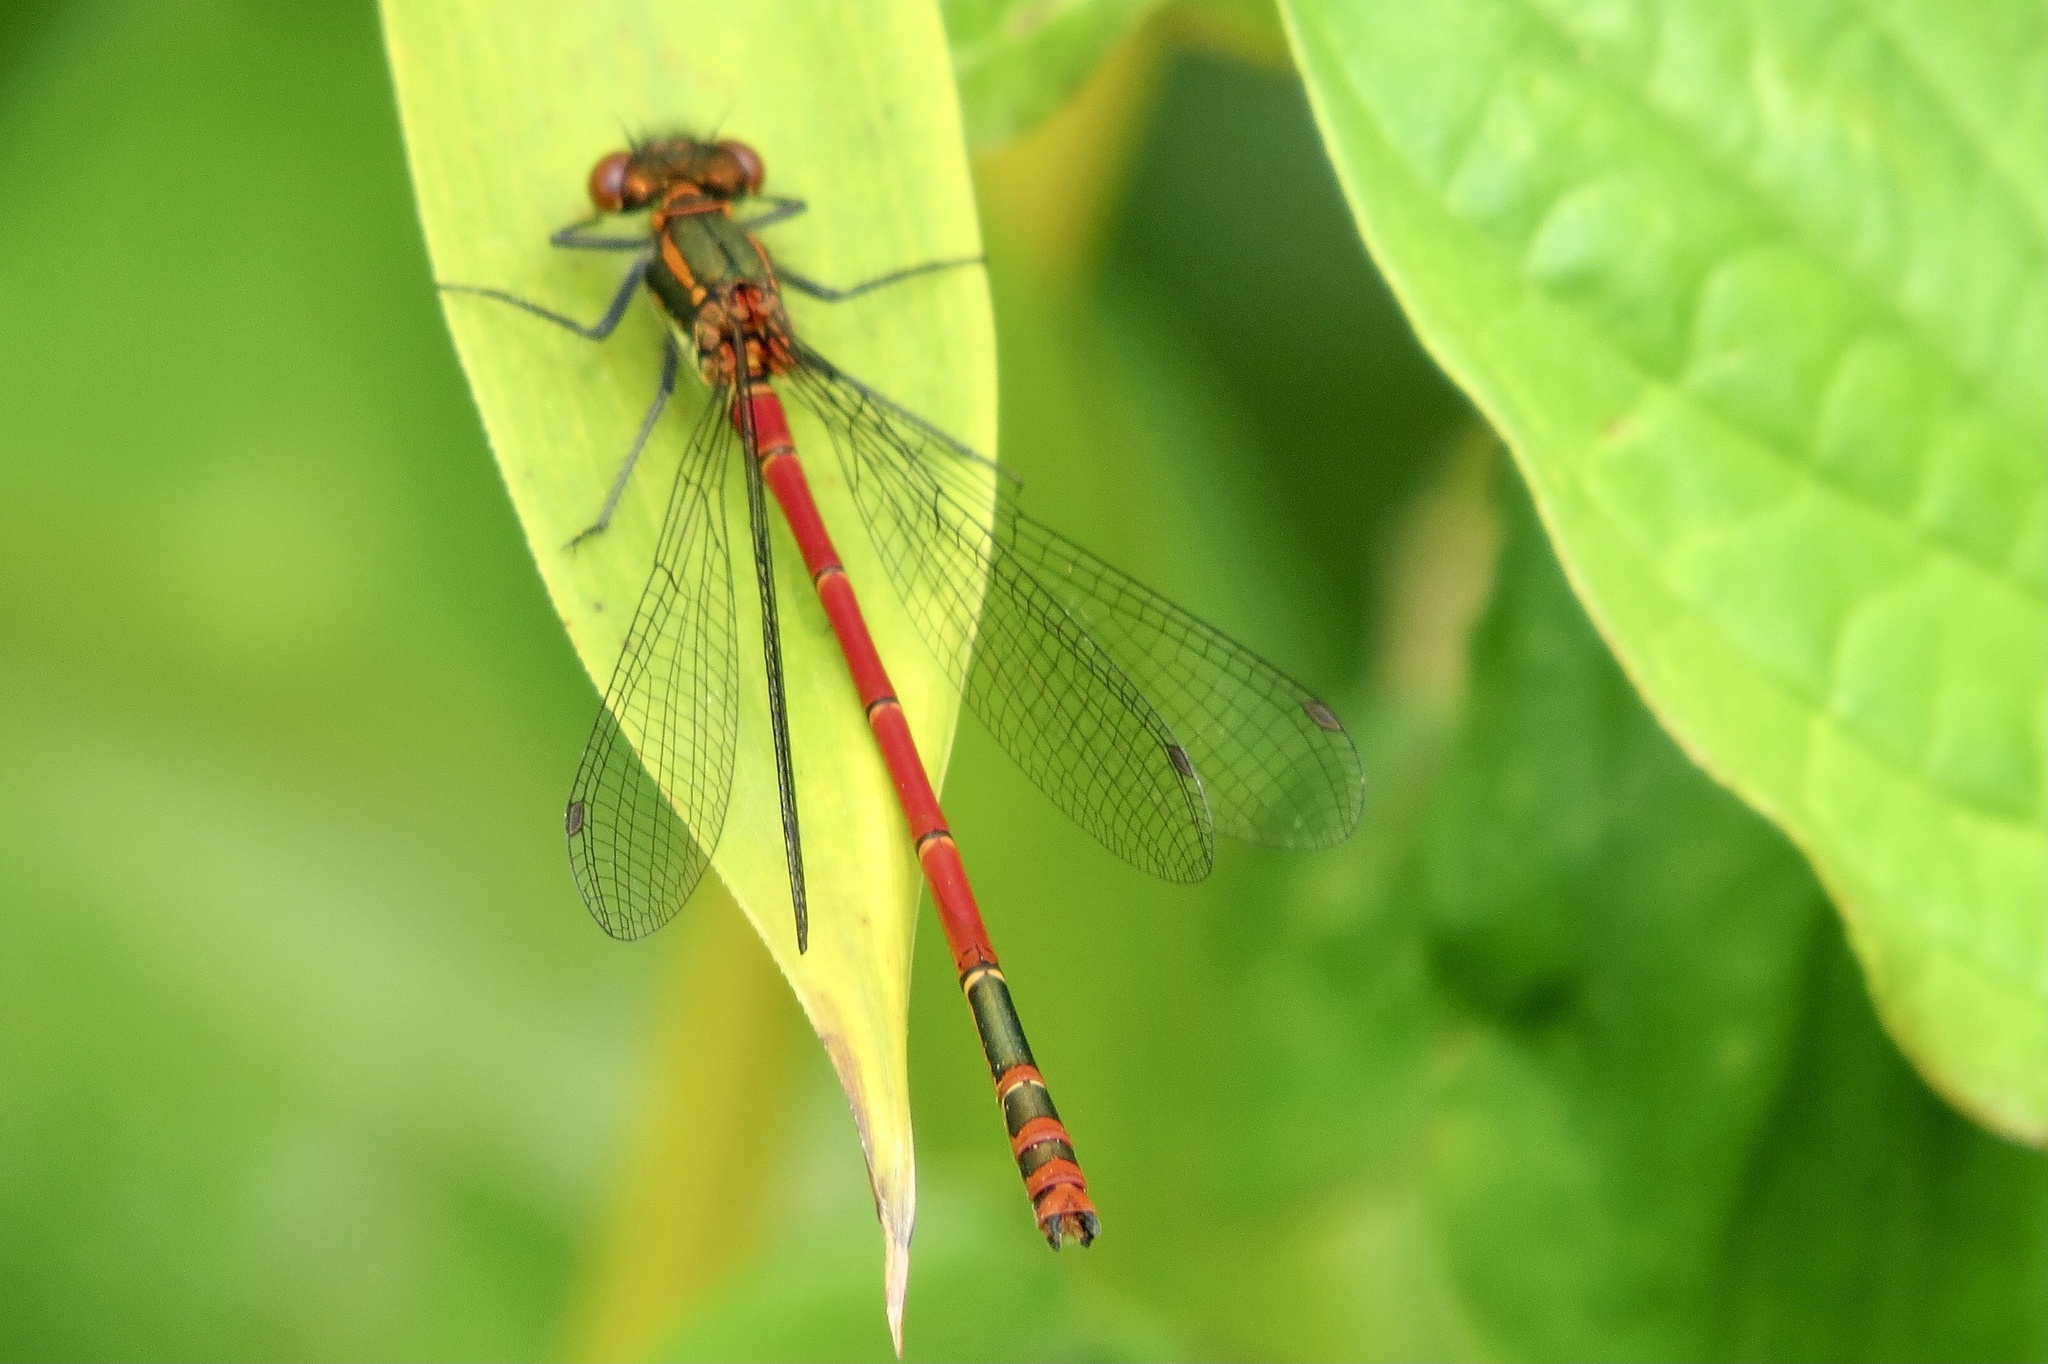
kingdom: Animalia
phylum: Arthropoda
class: Insecta
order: Odonata
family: Coenagrionidae
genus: Pyrrhosoma
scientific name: Pyrrhosoma nymphula
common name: Large red damsel
